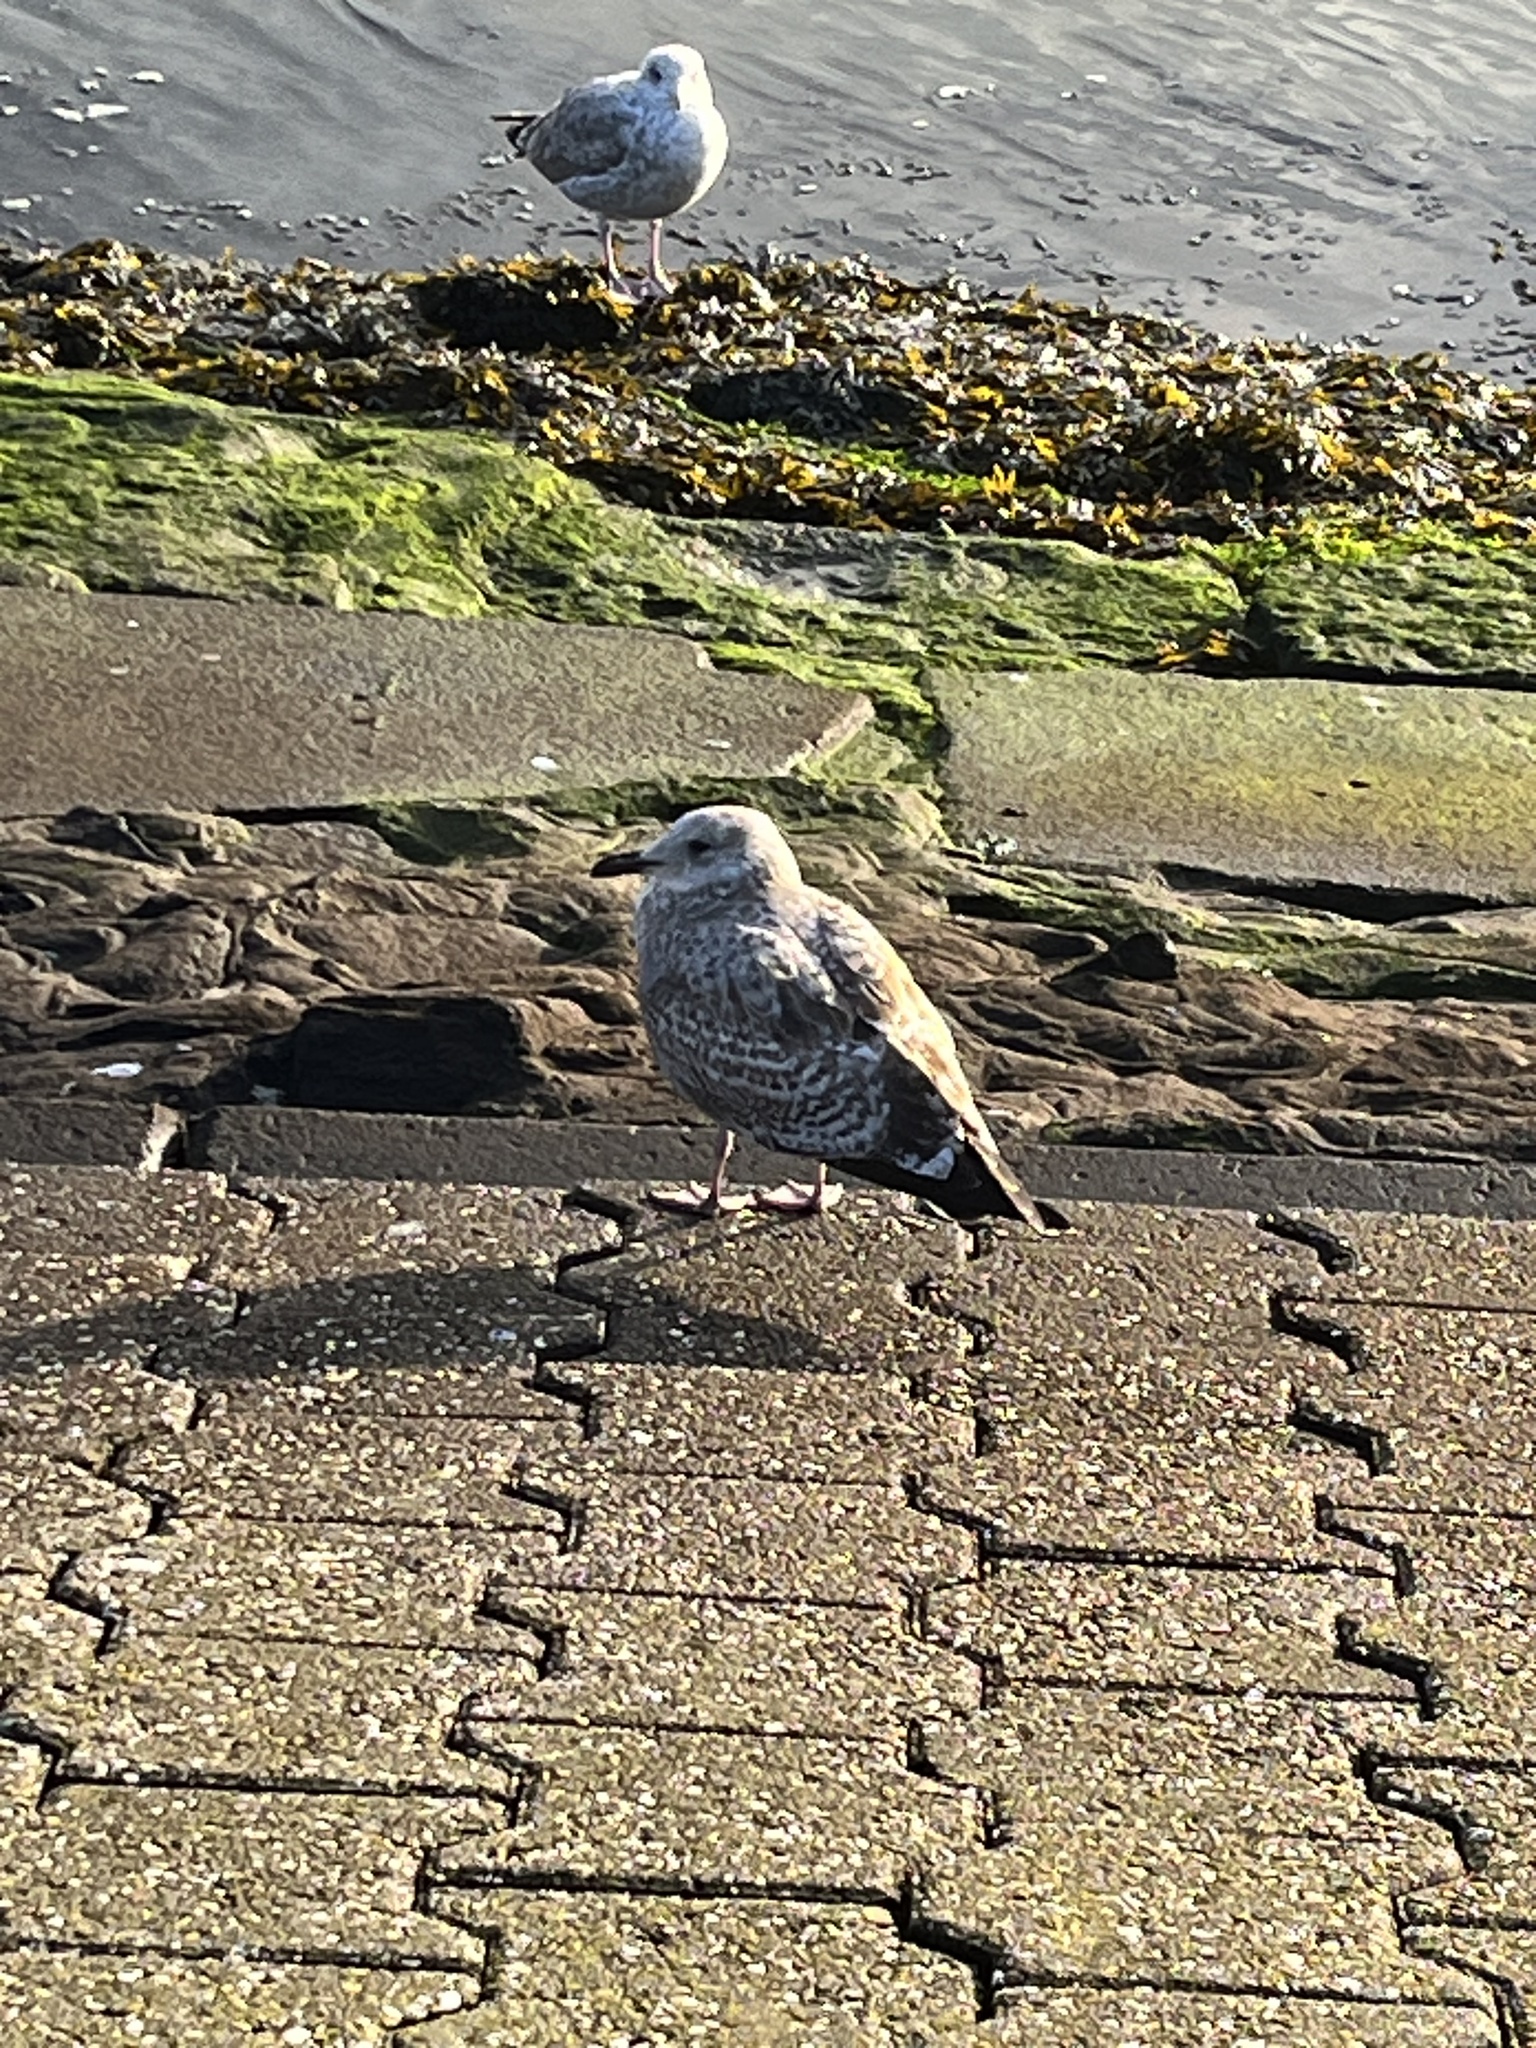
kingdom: Animalia
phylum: Chordata
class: Aves
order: Charadriiformes
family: Laridae
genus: Larus
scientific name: Larus argentatus
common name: Herring gull
